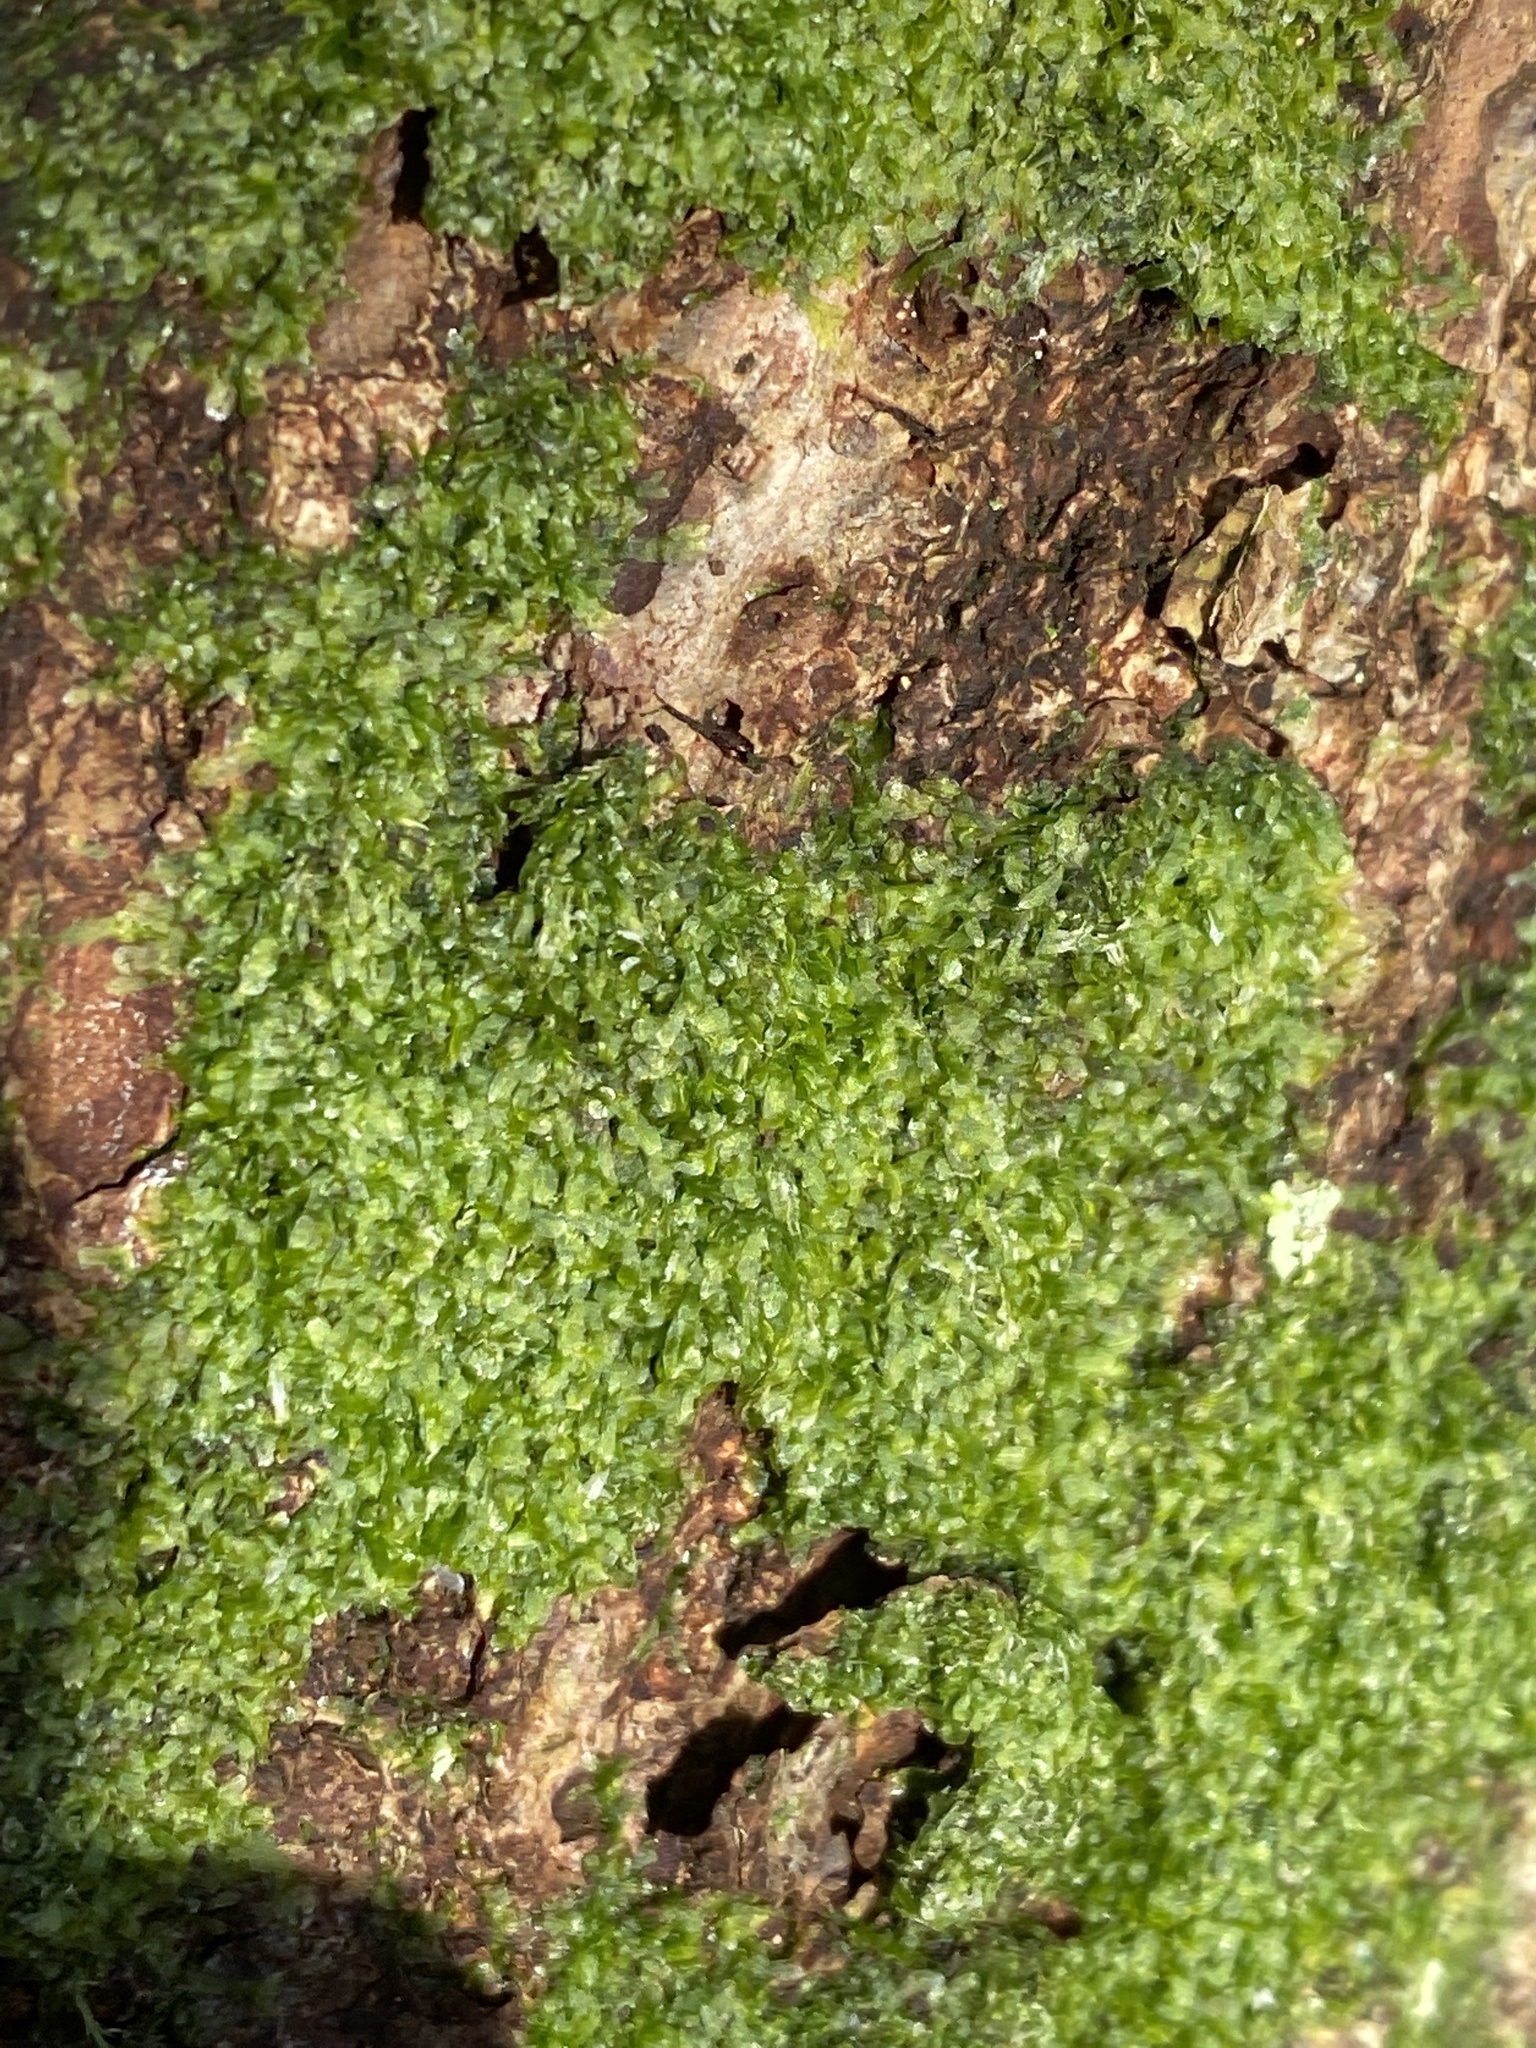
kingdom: Plantae
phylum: Marchantiophyta
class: Jungermanniopsida
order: Metzgeriales
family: Metzgeriaceae
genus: Metzgeria
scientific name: Metzgeria furcata
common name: Forked veilwort
